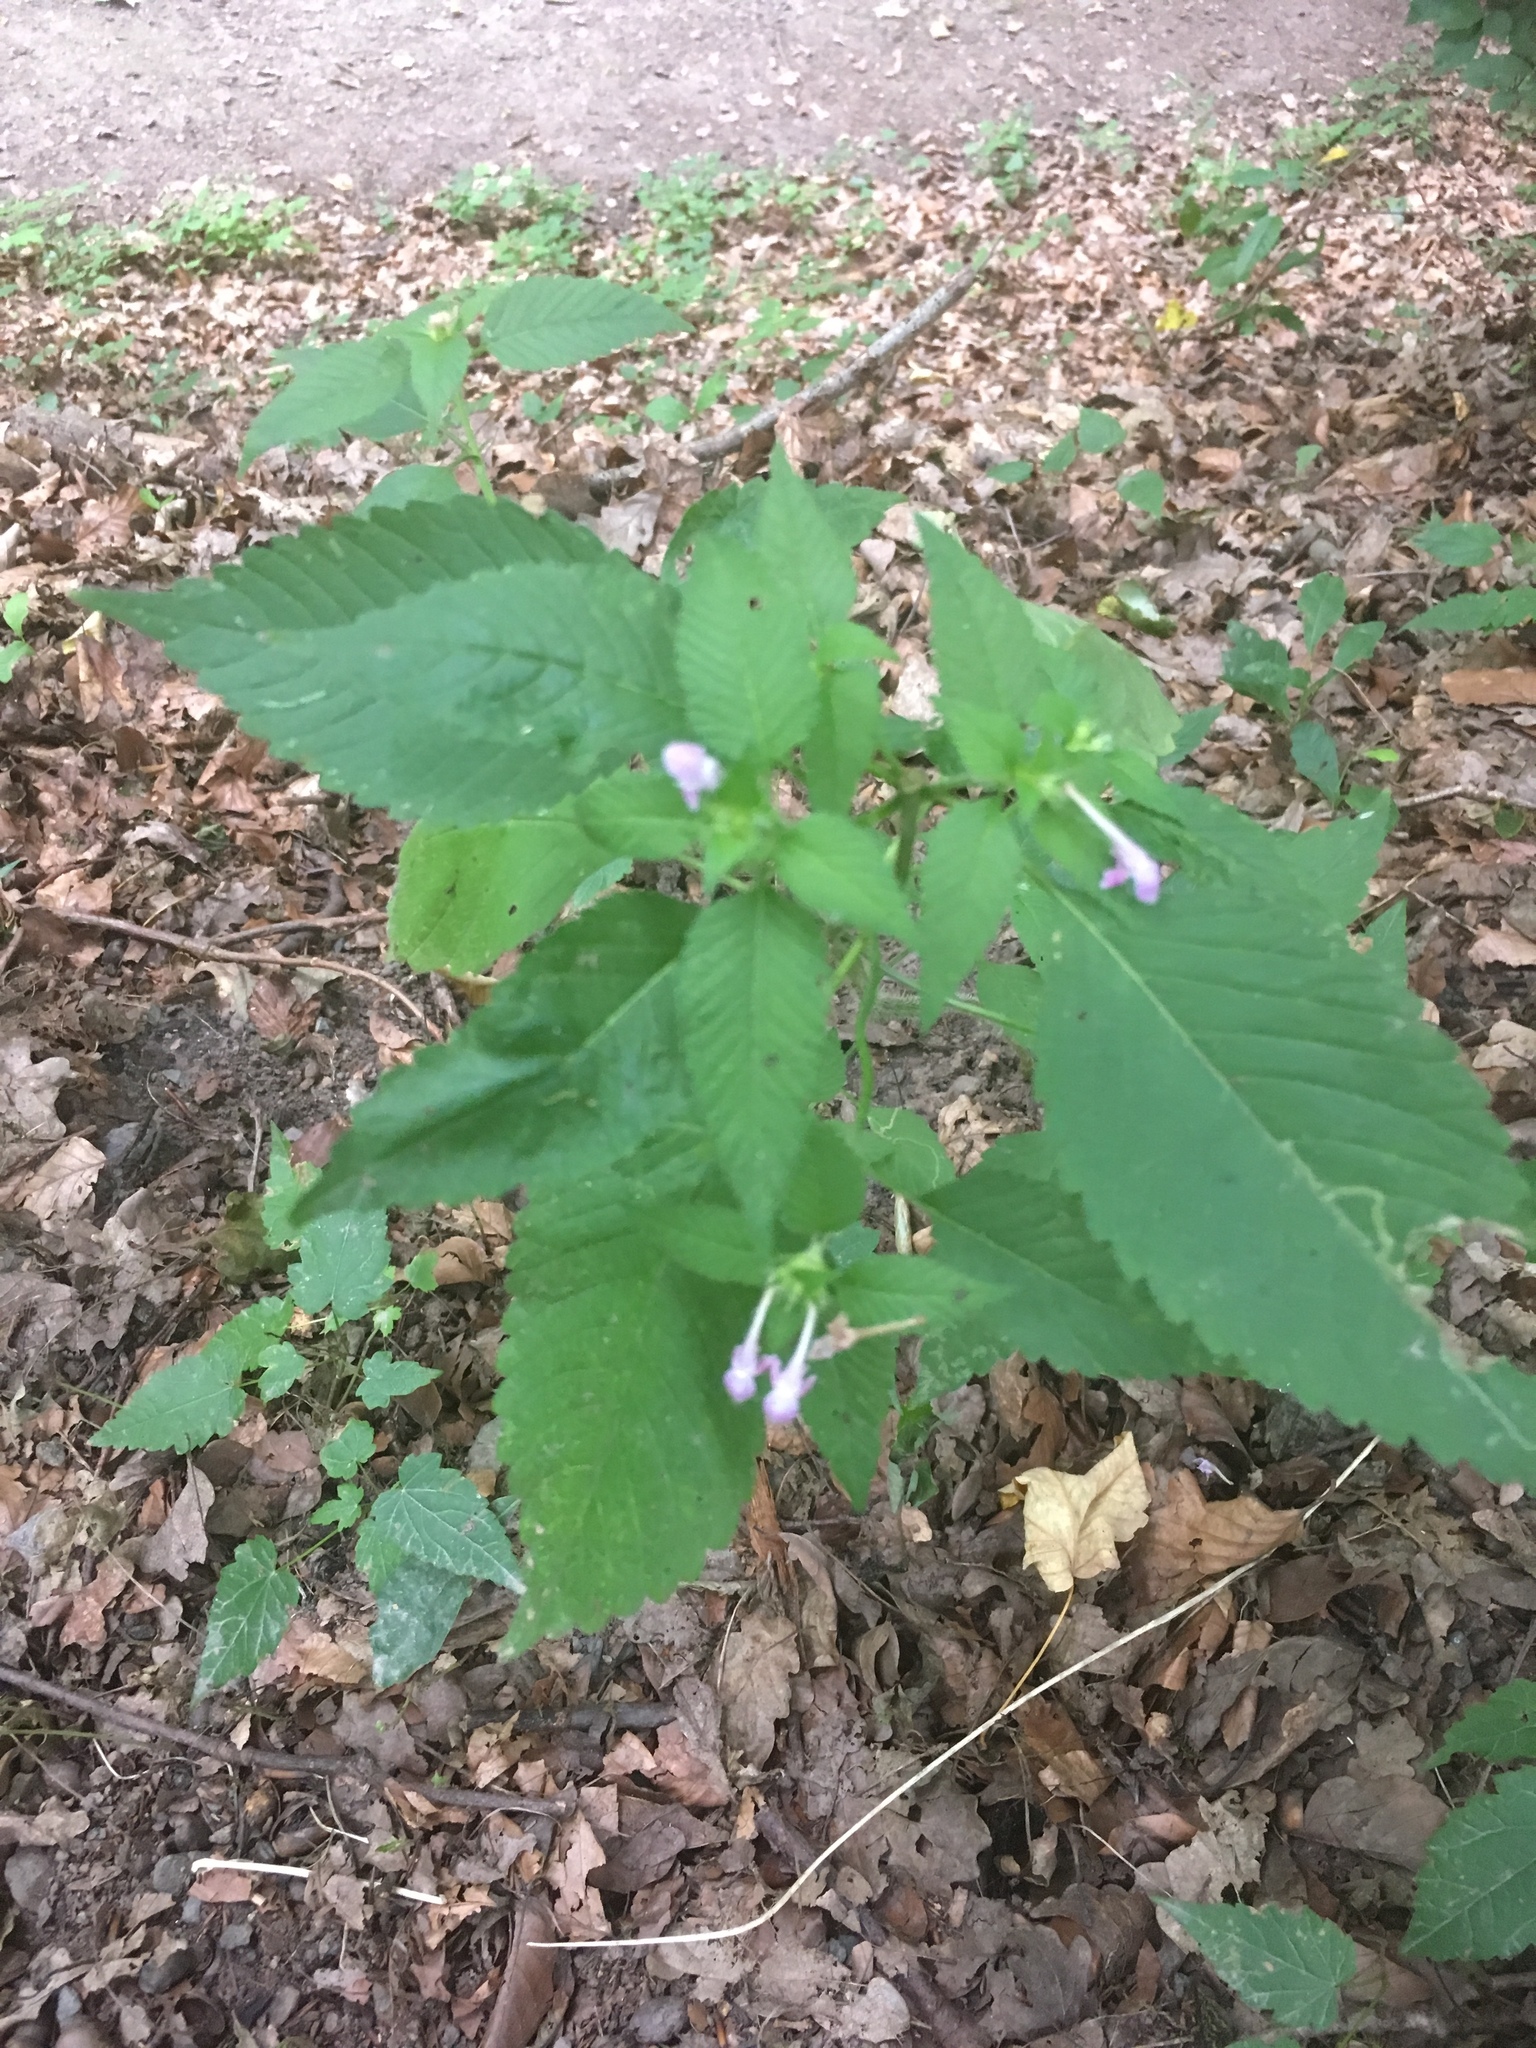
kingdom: Plantae
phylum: Tracheophyta
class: Magnoliopsida
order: Lamiales
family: Lamiaceae
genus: Galeopsis
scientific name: Galeopsis tetrahit
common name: Common hemp-nettle
